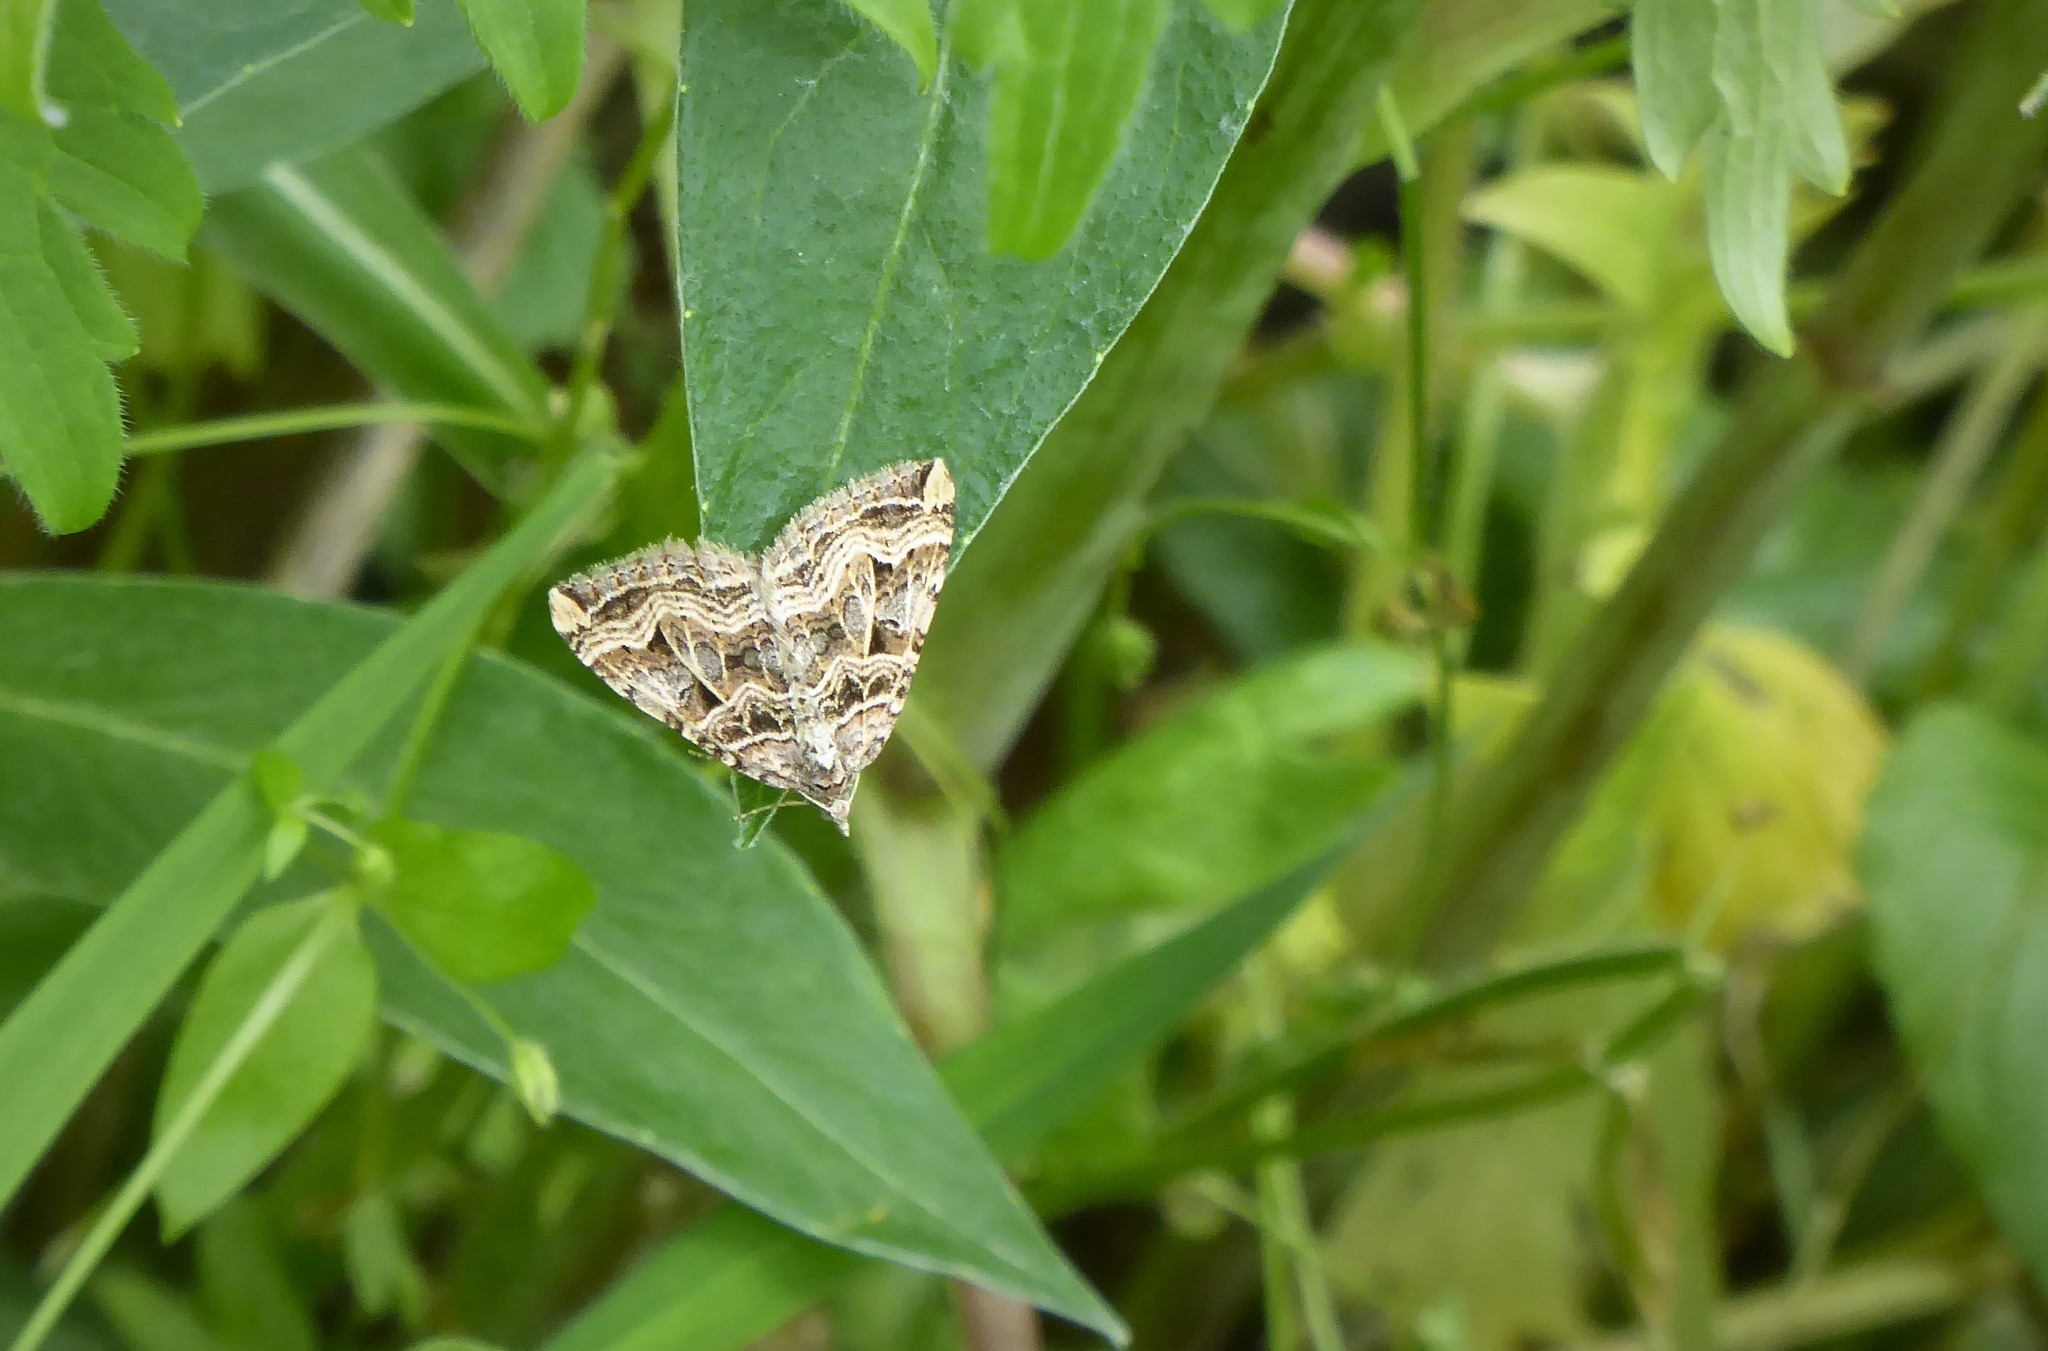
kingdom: Animalia
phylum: Arthropoda
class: Insecta
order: Lepidoptera
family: Geometridae
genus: Xanthorhoe
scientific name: Xanthorhoe semifissata
